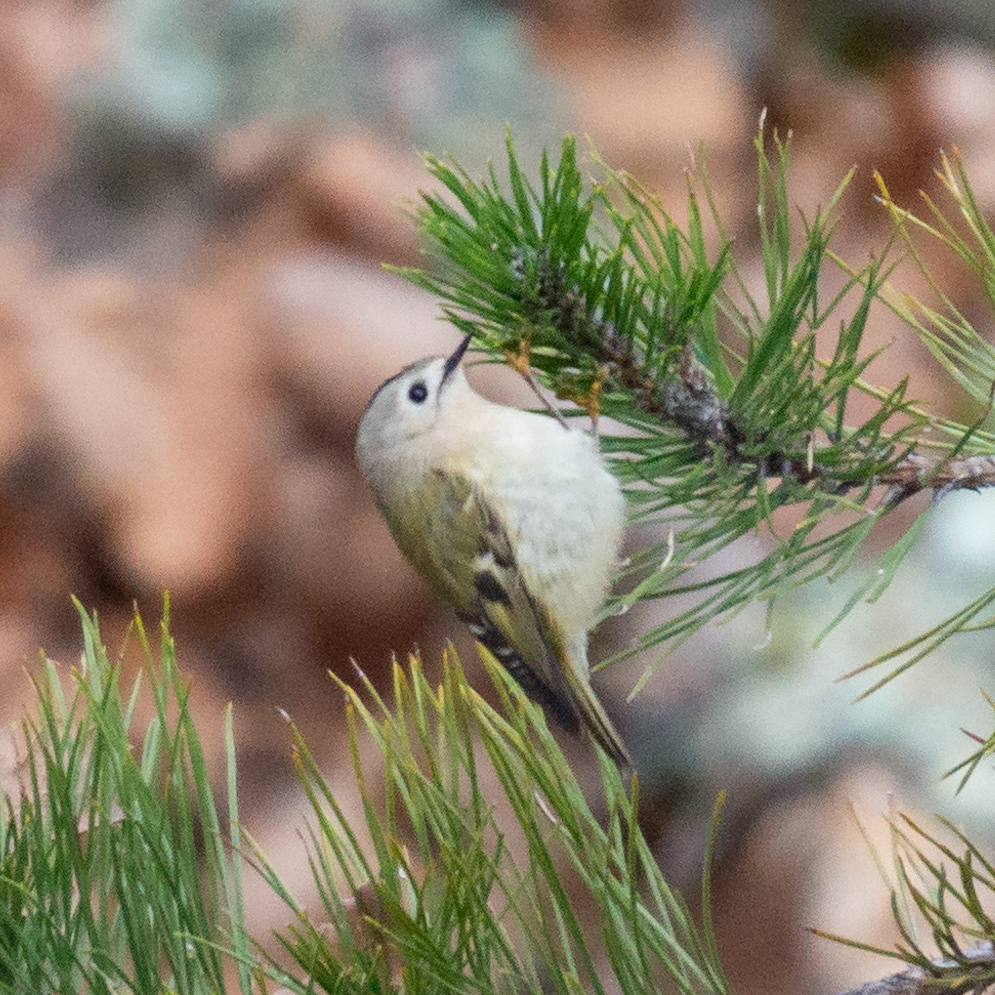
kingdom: Animalia
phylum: Chordata
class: Aves
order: Passeriformes
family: Regulidae
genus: Regulus
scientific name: Regulus regulus
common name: Goldcrest
